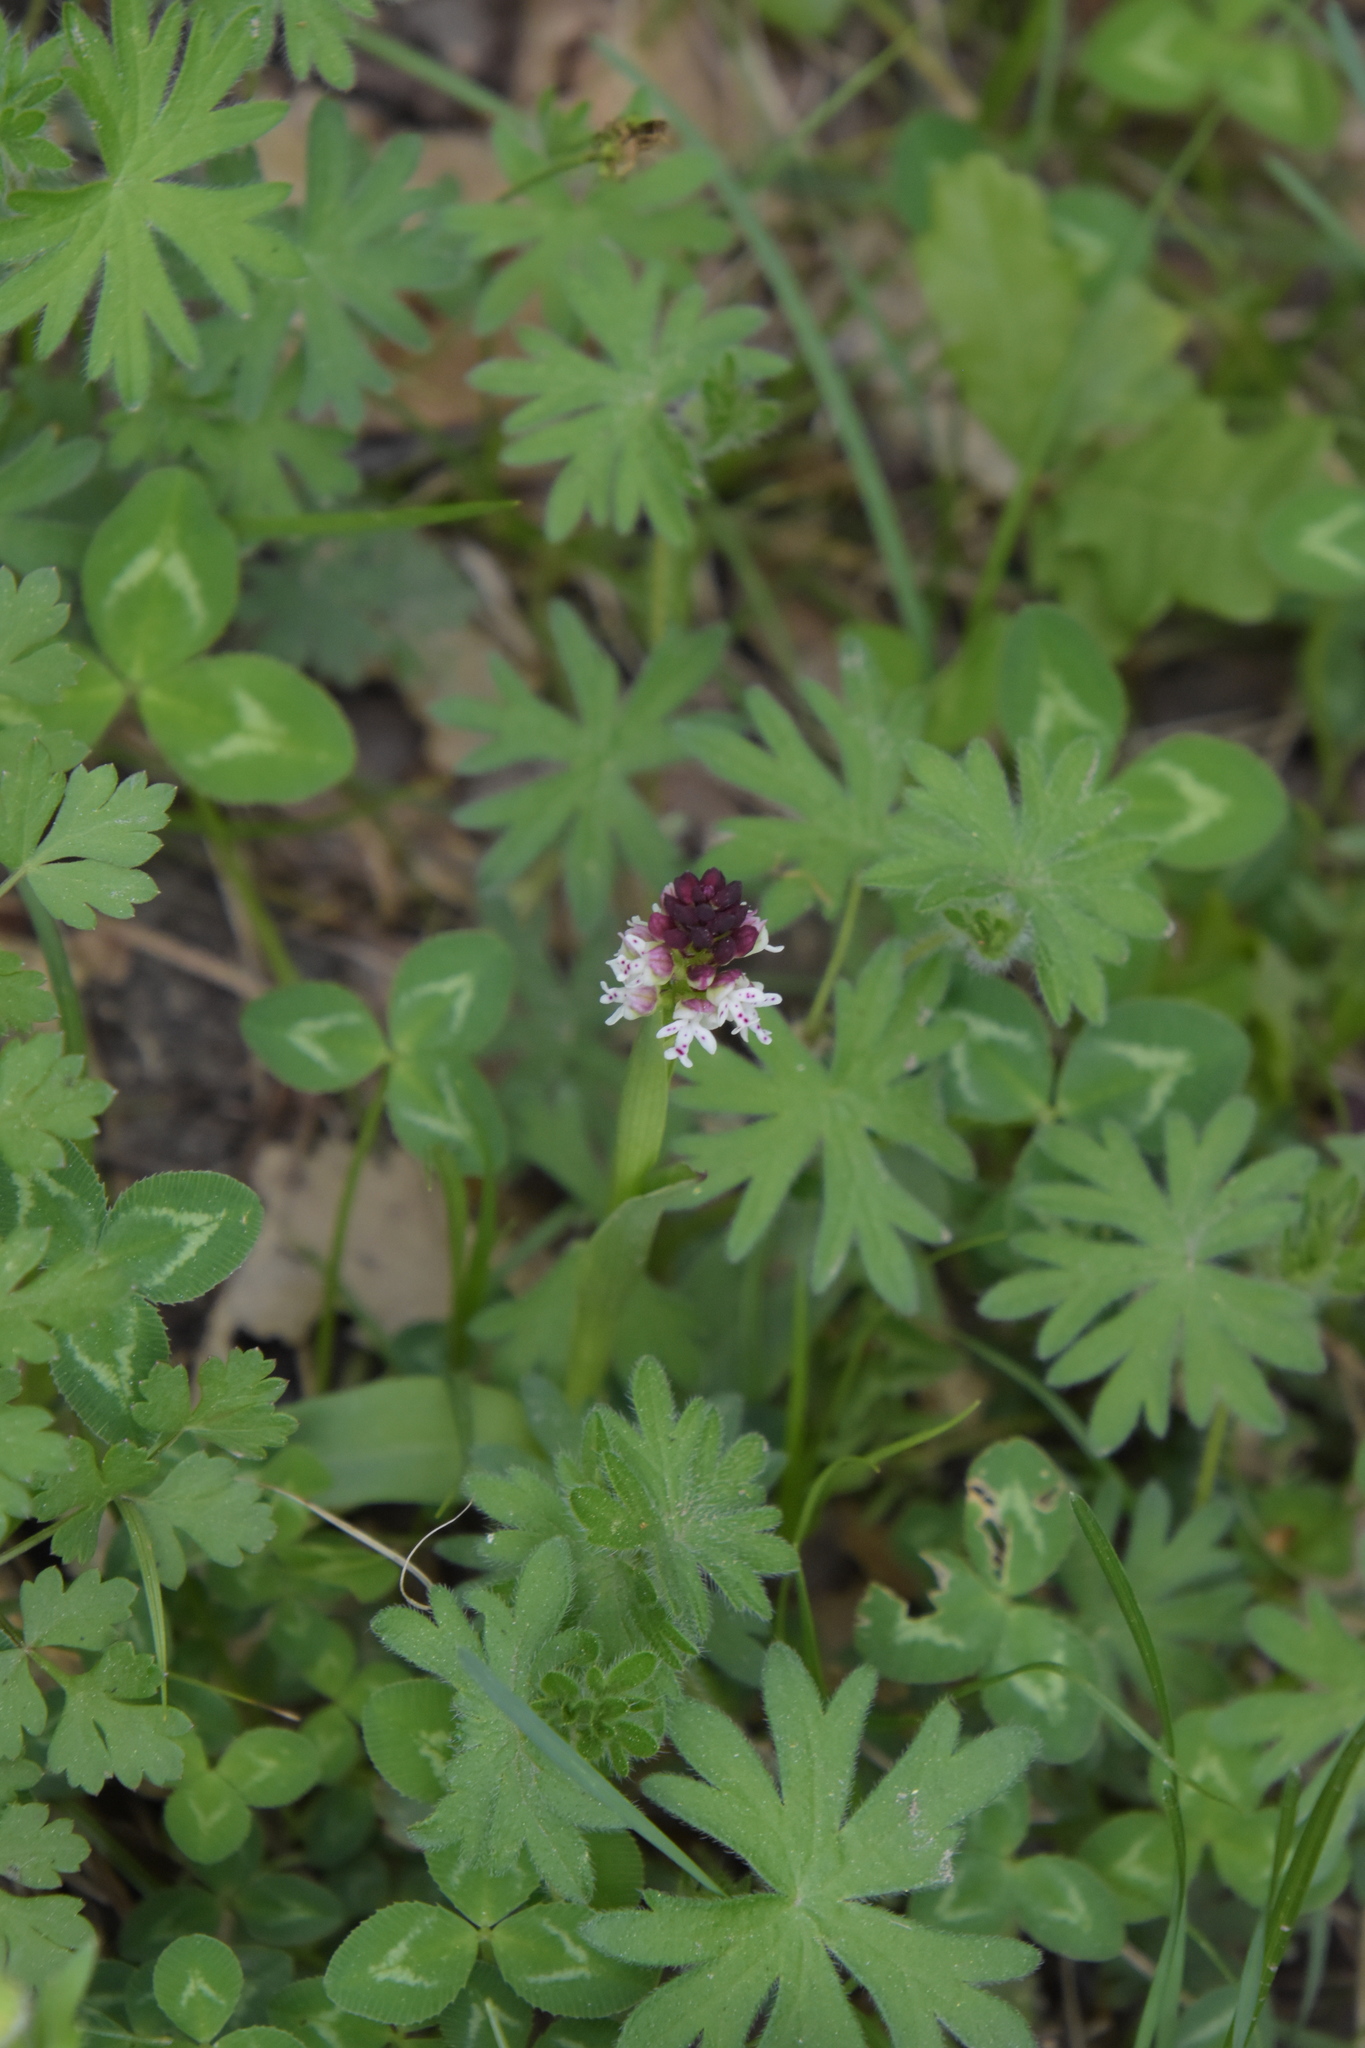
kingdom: Plantae
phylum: Tracheophyta
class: Liliopsida
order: Asparagales
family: Orchidaceae
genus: Neotinea
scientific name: Neotinea ustulata
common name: Burnt orchid
